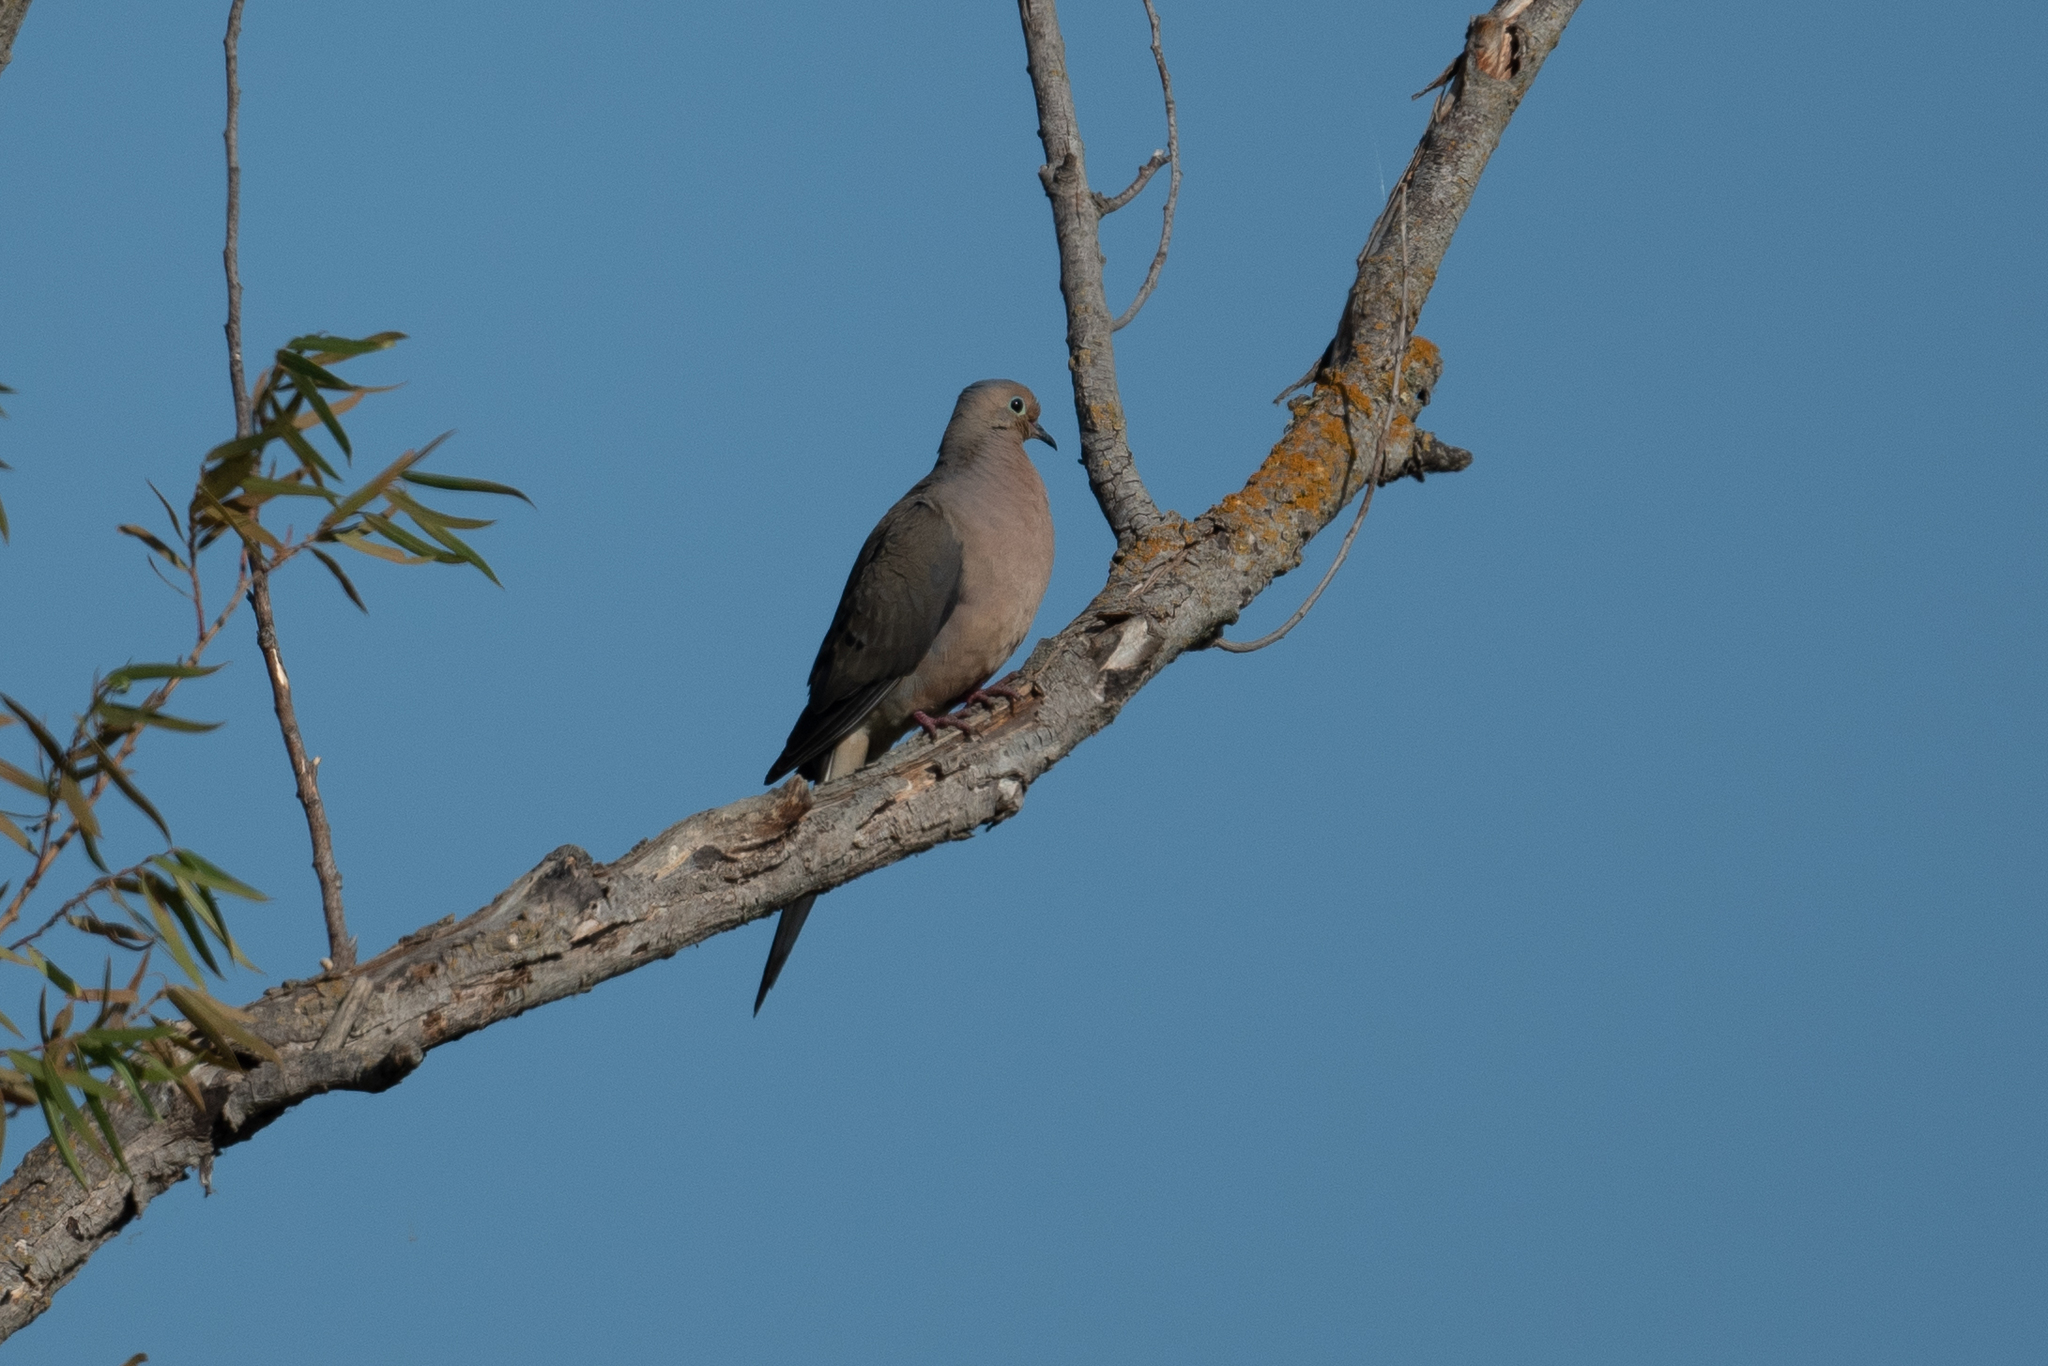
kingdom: Animalia
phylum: Chordata
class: Aves
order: Columbiformes
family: Columbidae
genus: Zenaida
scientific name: Zenaida macroura
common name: Mourning dove
